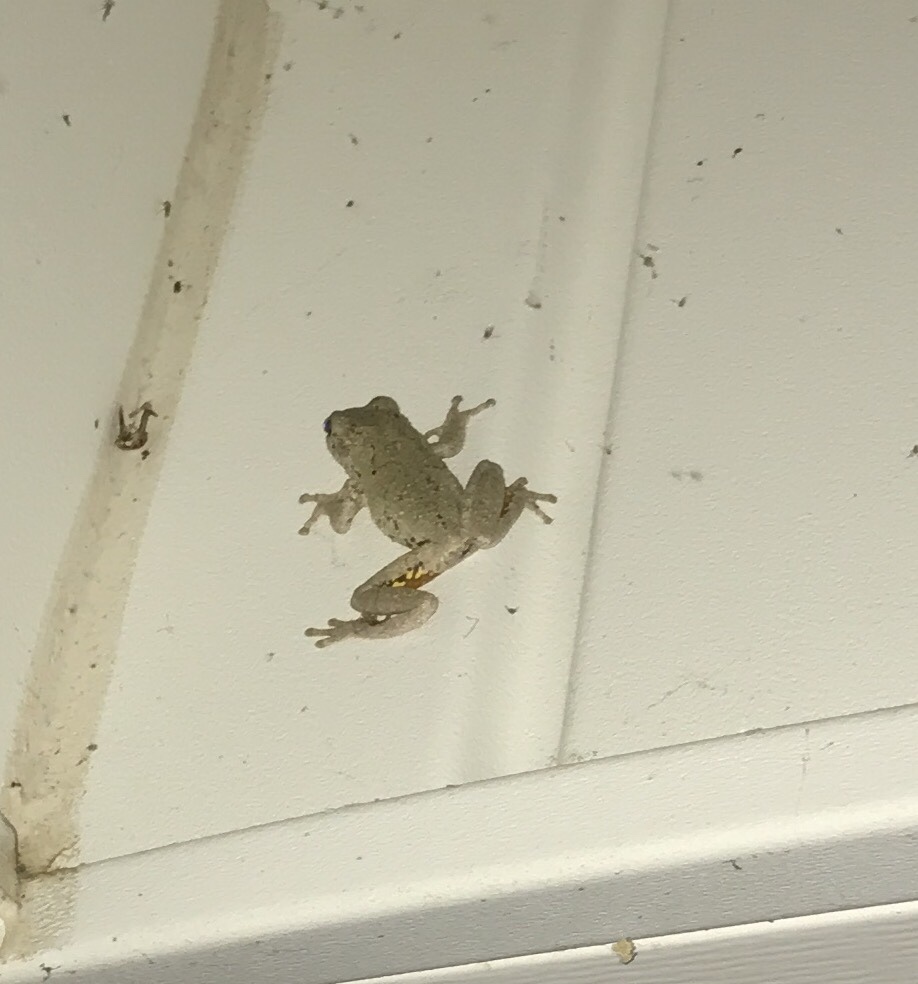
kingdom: Animalia
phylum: Chordata
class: Amphibia
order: Anura
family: Hylidae
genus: Dryophytes
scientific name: Dryophytes chrysoscelis
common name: Cope's gray treefrog
